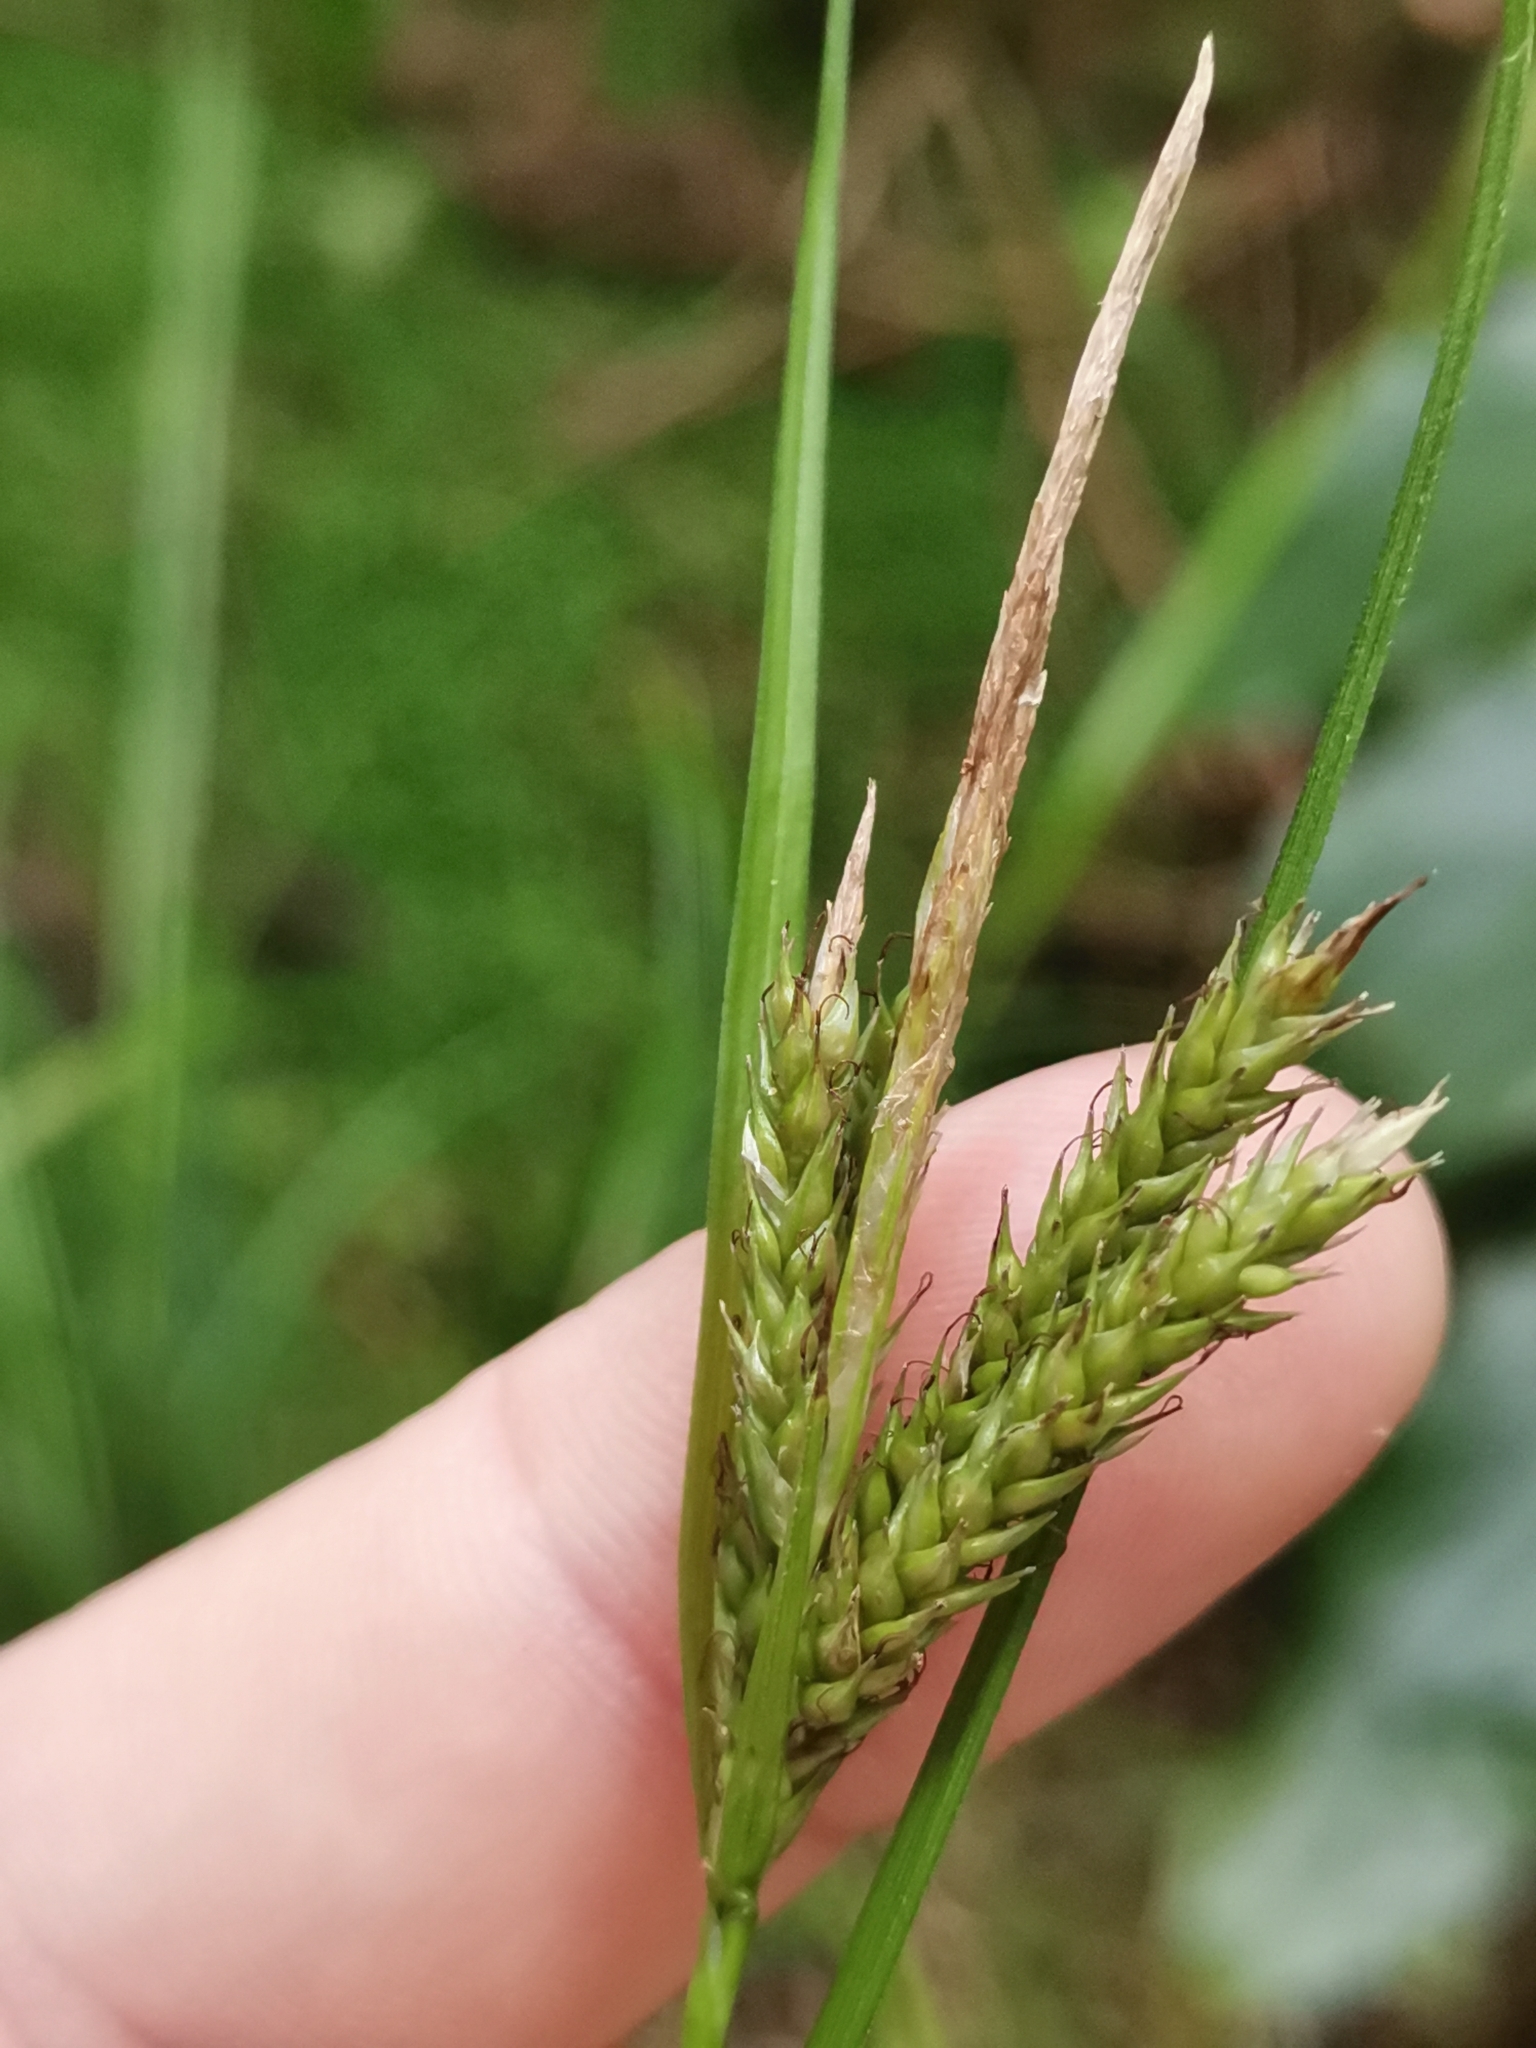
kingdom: Plantae
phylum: Tracheophyta
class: Liliopsida
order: Poales
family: Cyperaceae
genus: Carex
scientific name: Carex vulcani
